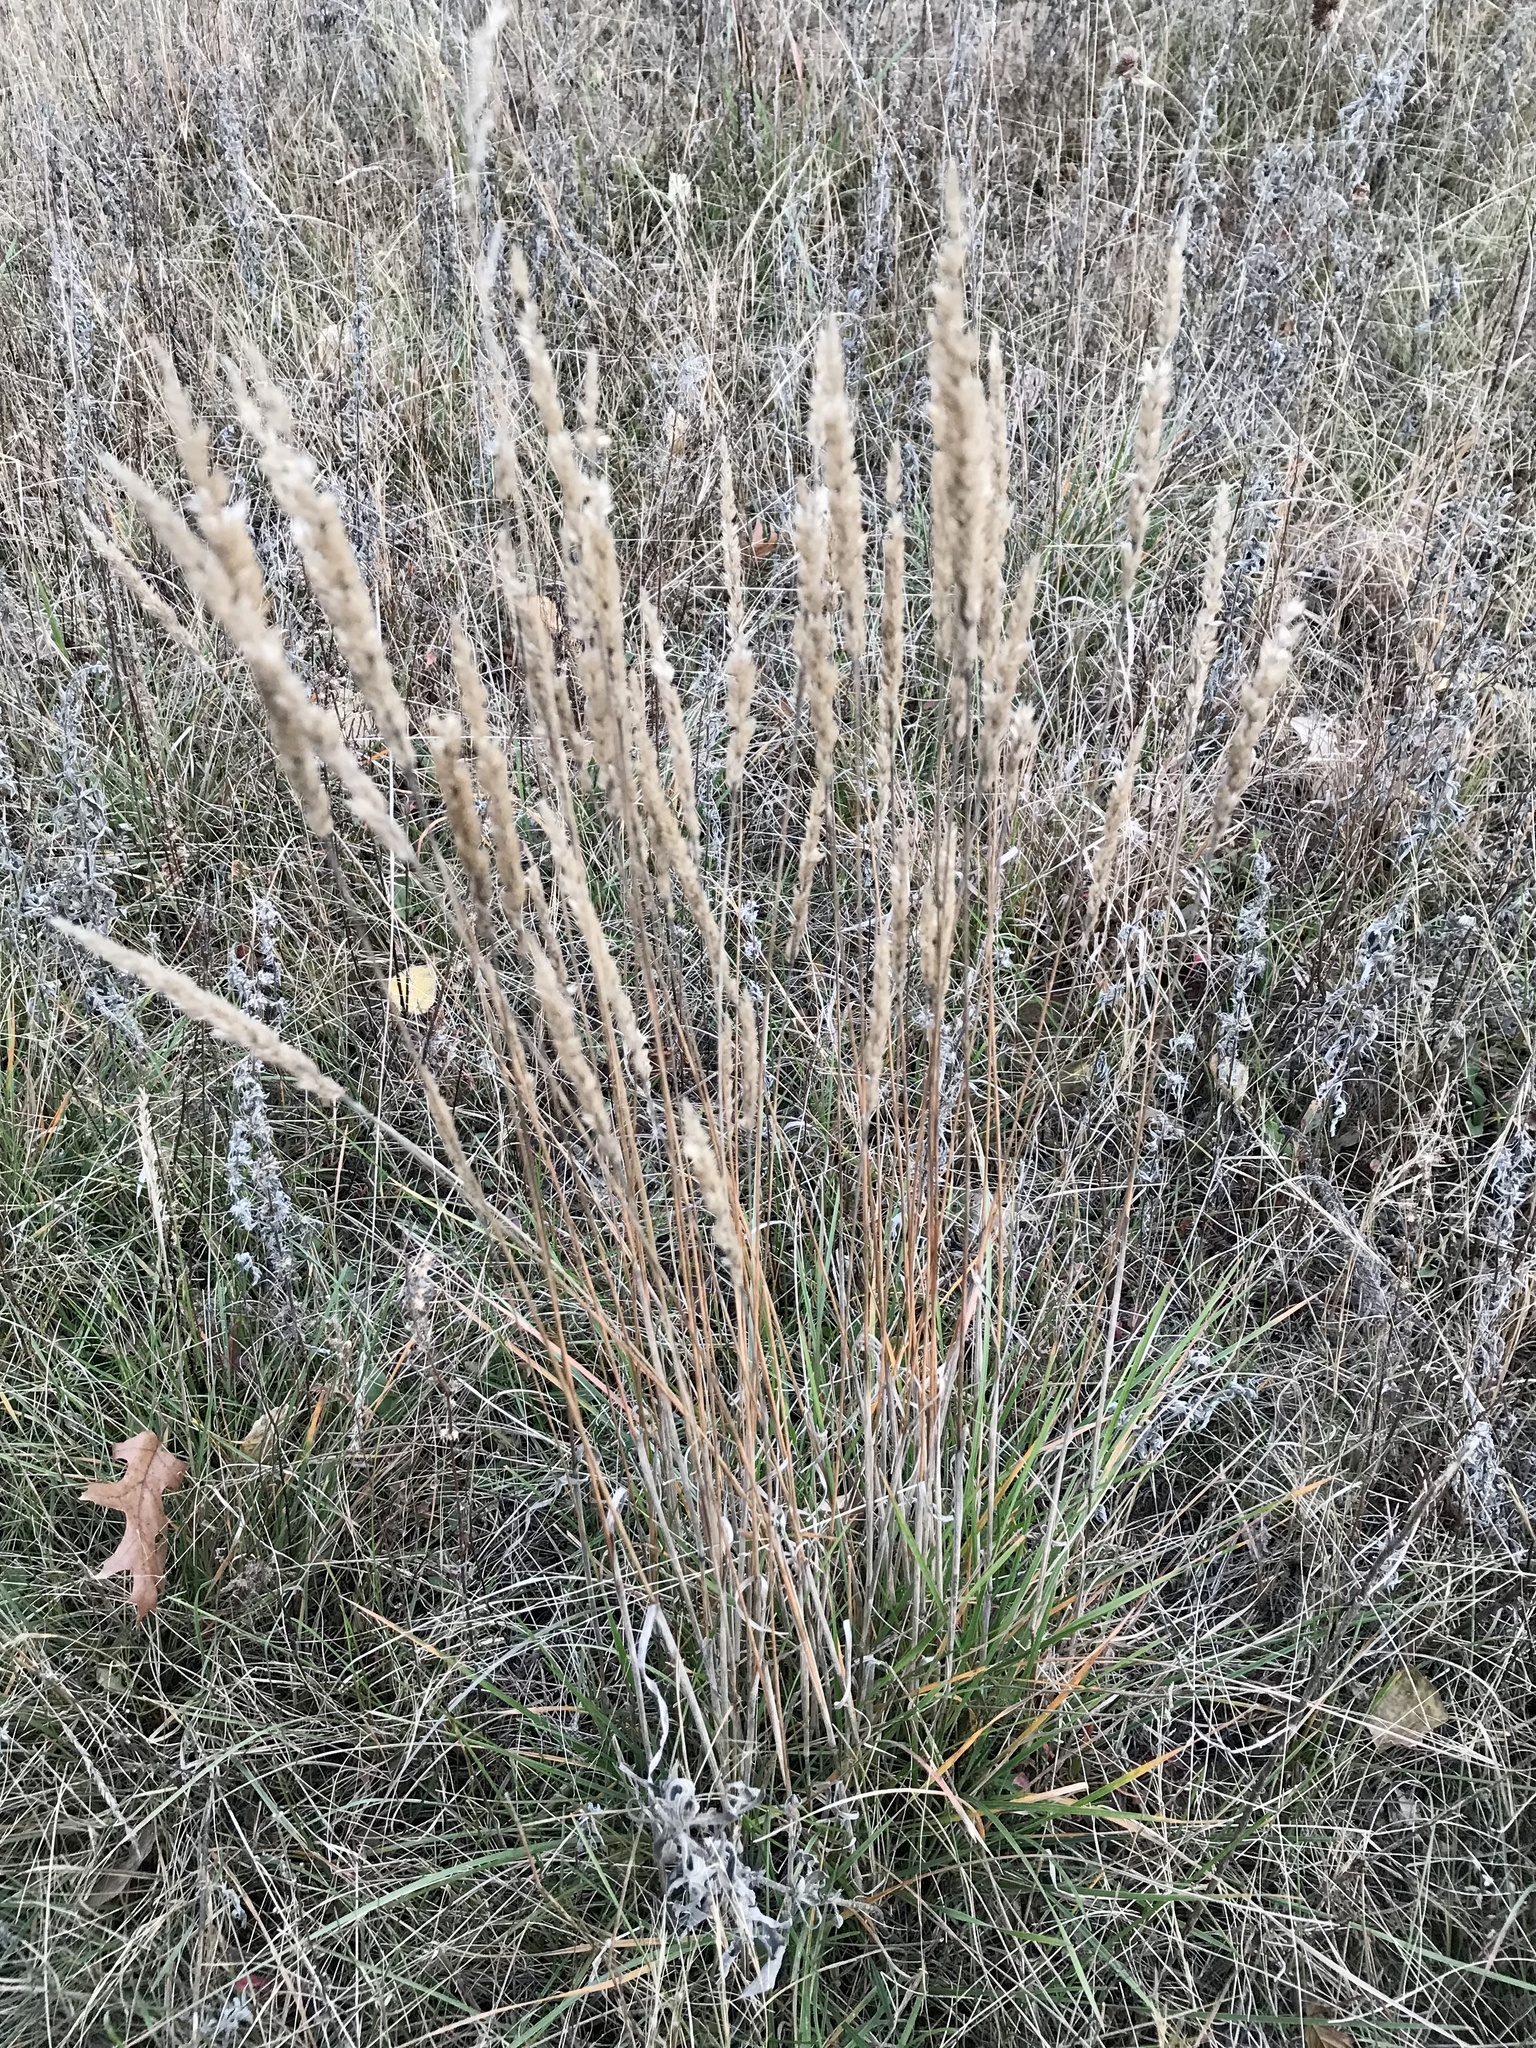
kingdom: Plantae
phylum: Tracheophyta
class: Liliopsida
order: Poales
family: Poaceae
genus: Koeleria
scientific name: Koeleria macrantha
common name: Crested hair-grass
